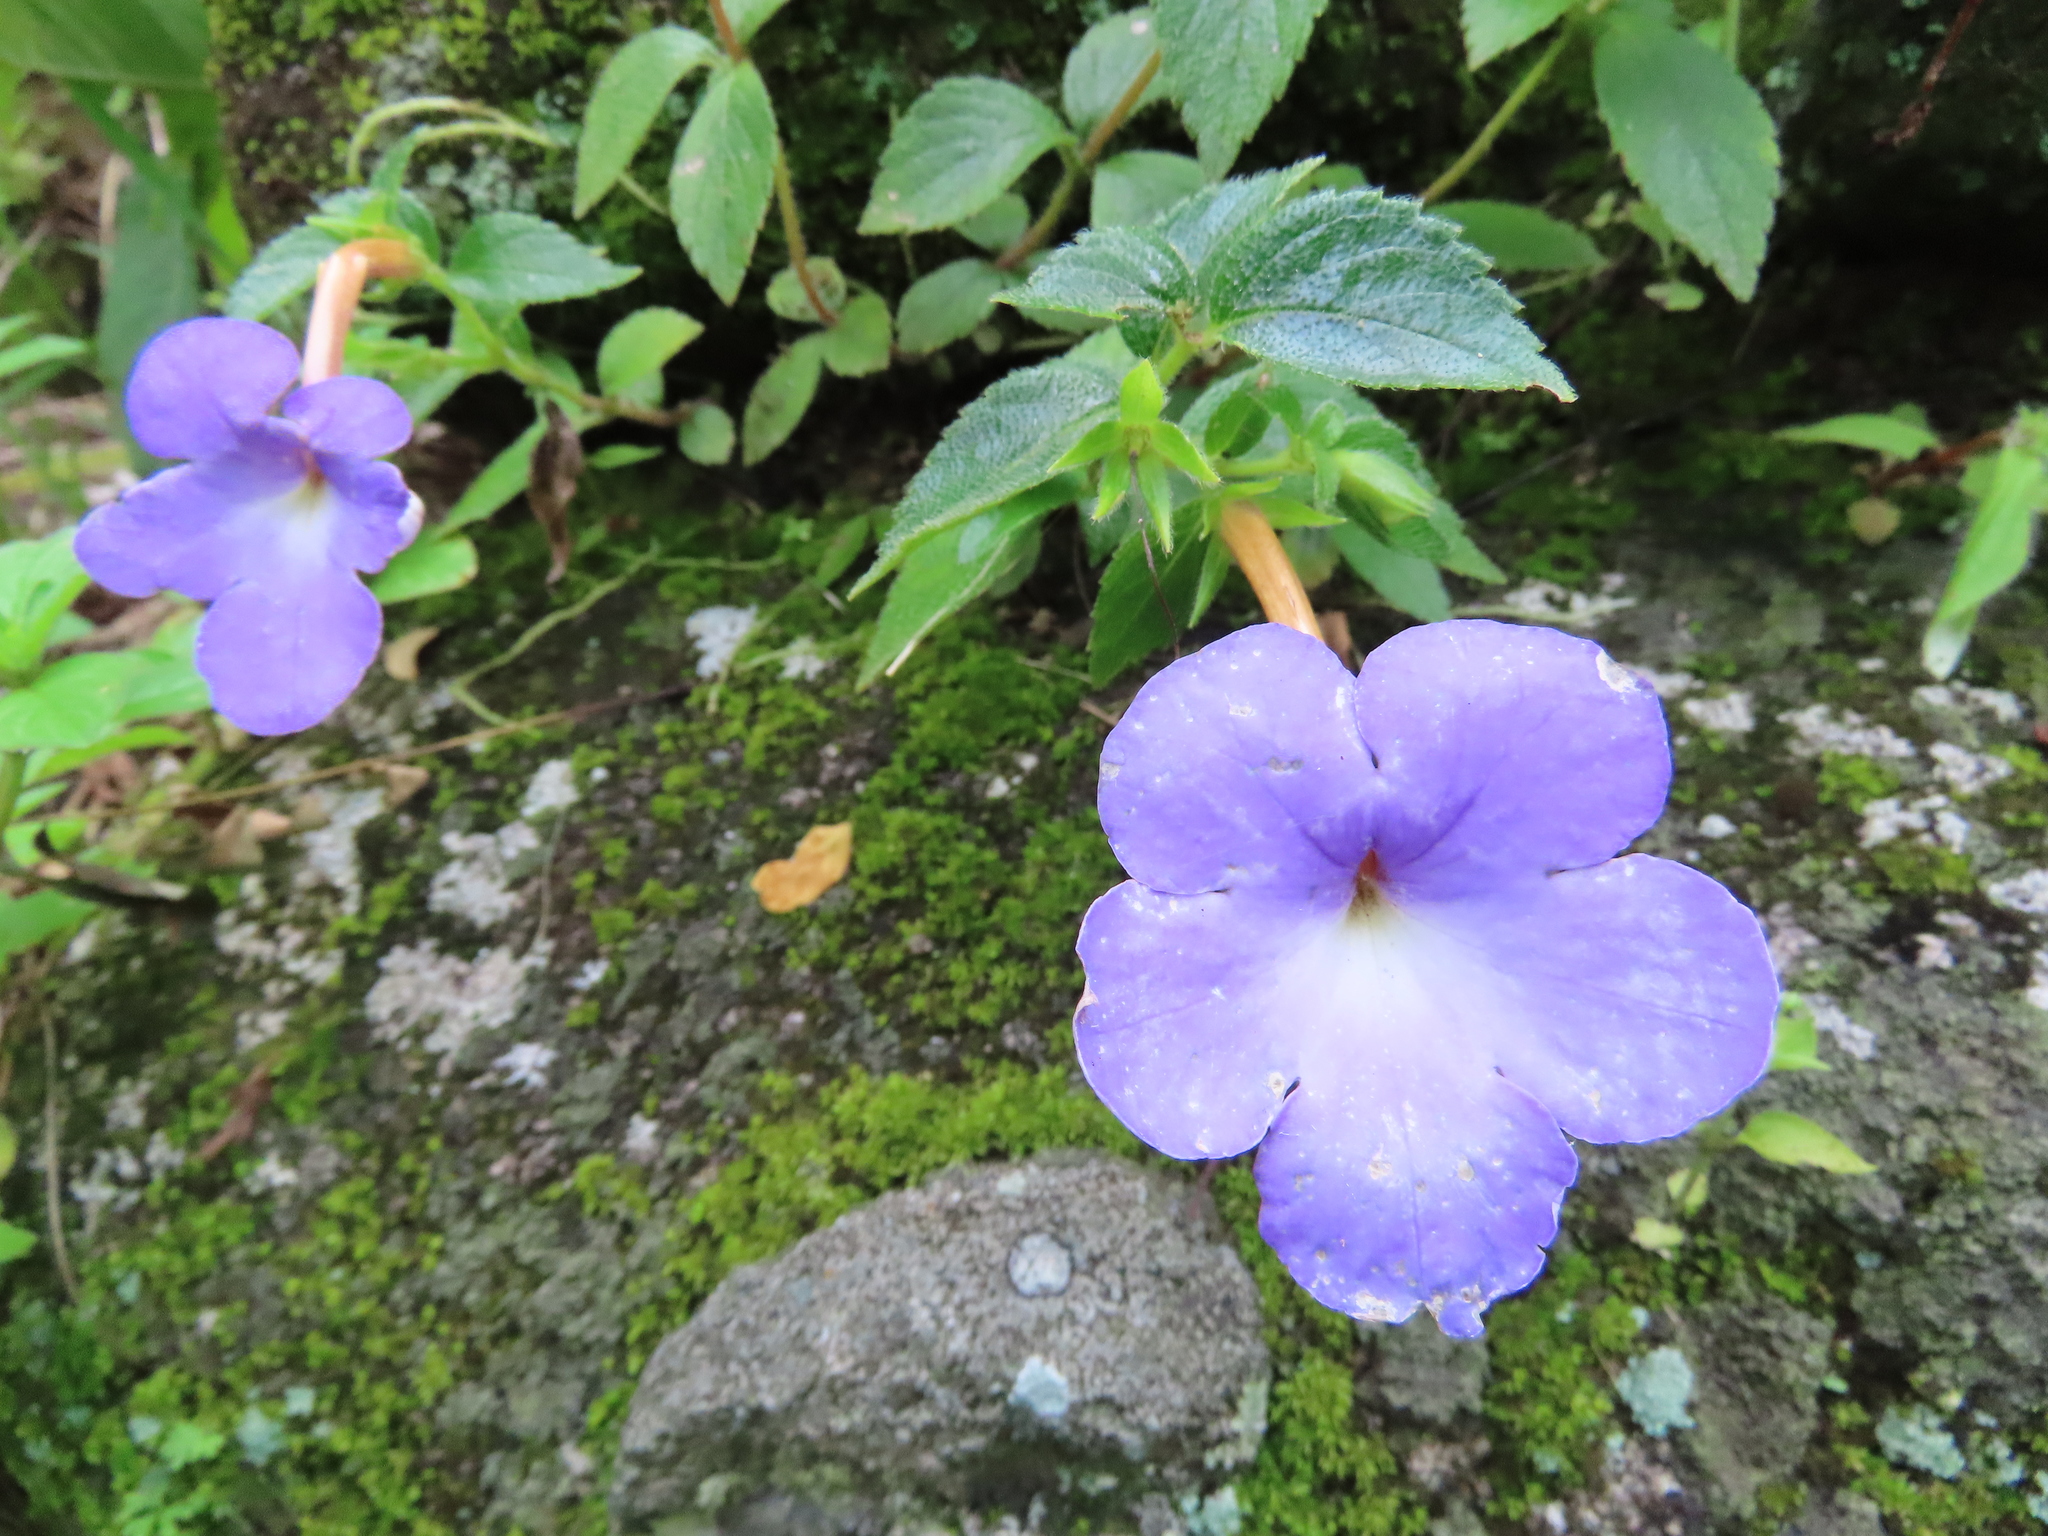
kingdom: Plantae
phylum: Tracheophyta
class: Magnoliopsida
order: Lamiales
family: Gesneriaceae
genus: Achimenes
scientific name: Achimenes longiflora
